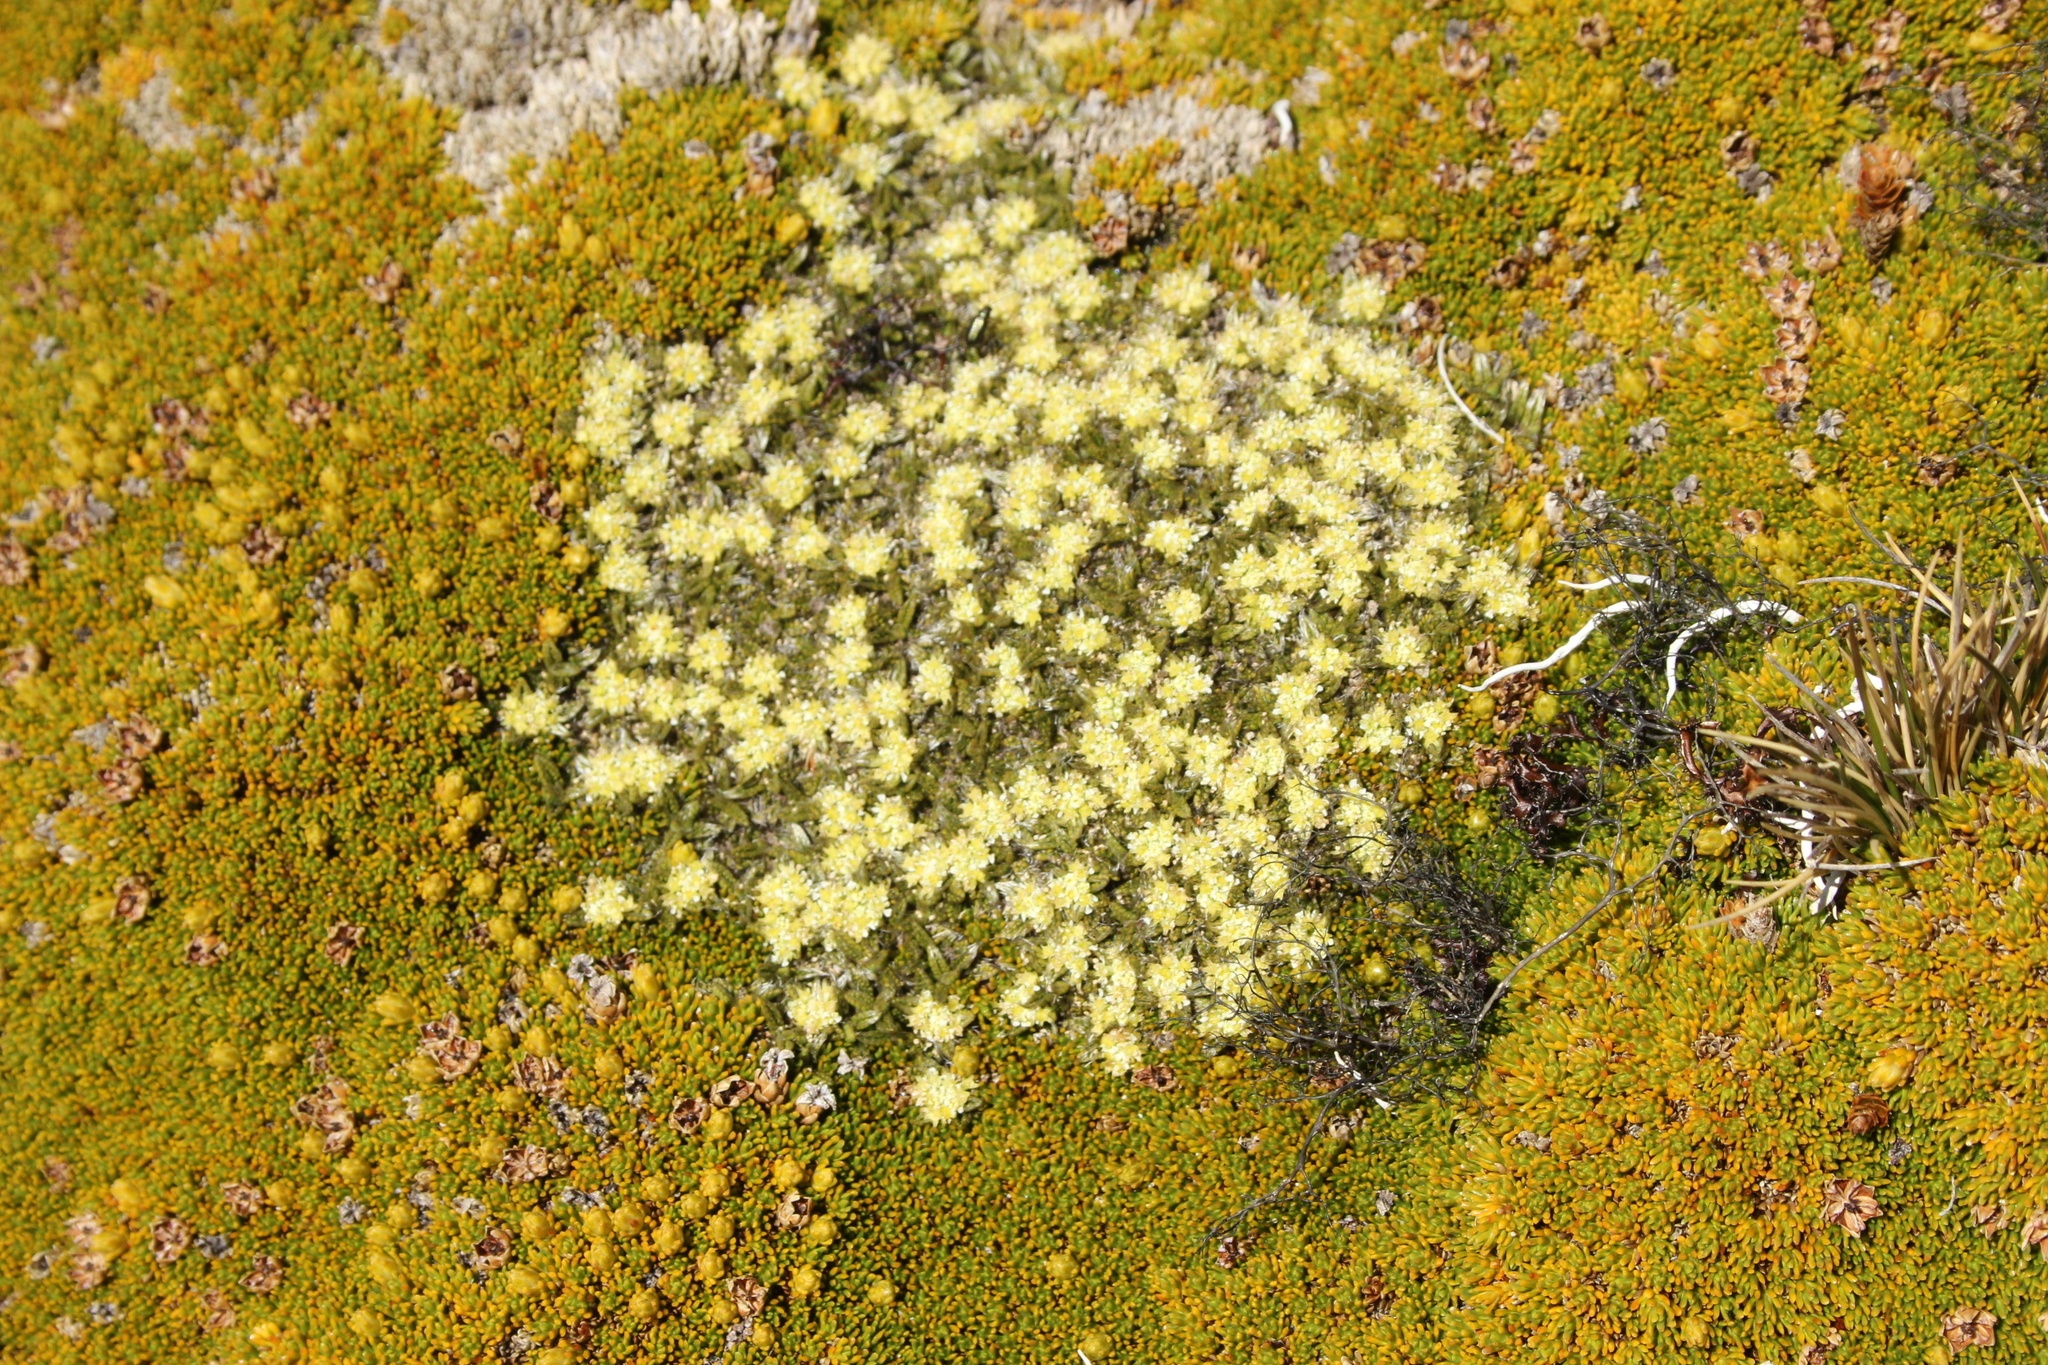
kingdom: Plantae
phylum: Tracheophyta
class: Magnoliopsida
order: Apiales
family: Apiaceae
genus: Anisotome
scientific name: Anisotome imbricata
